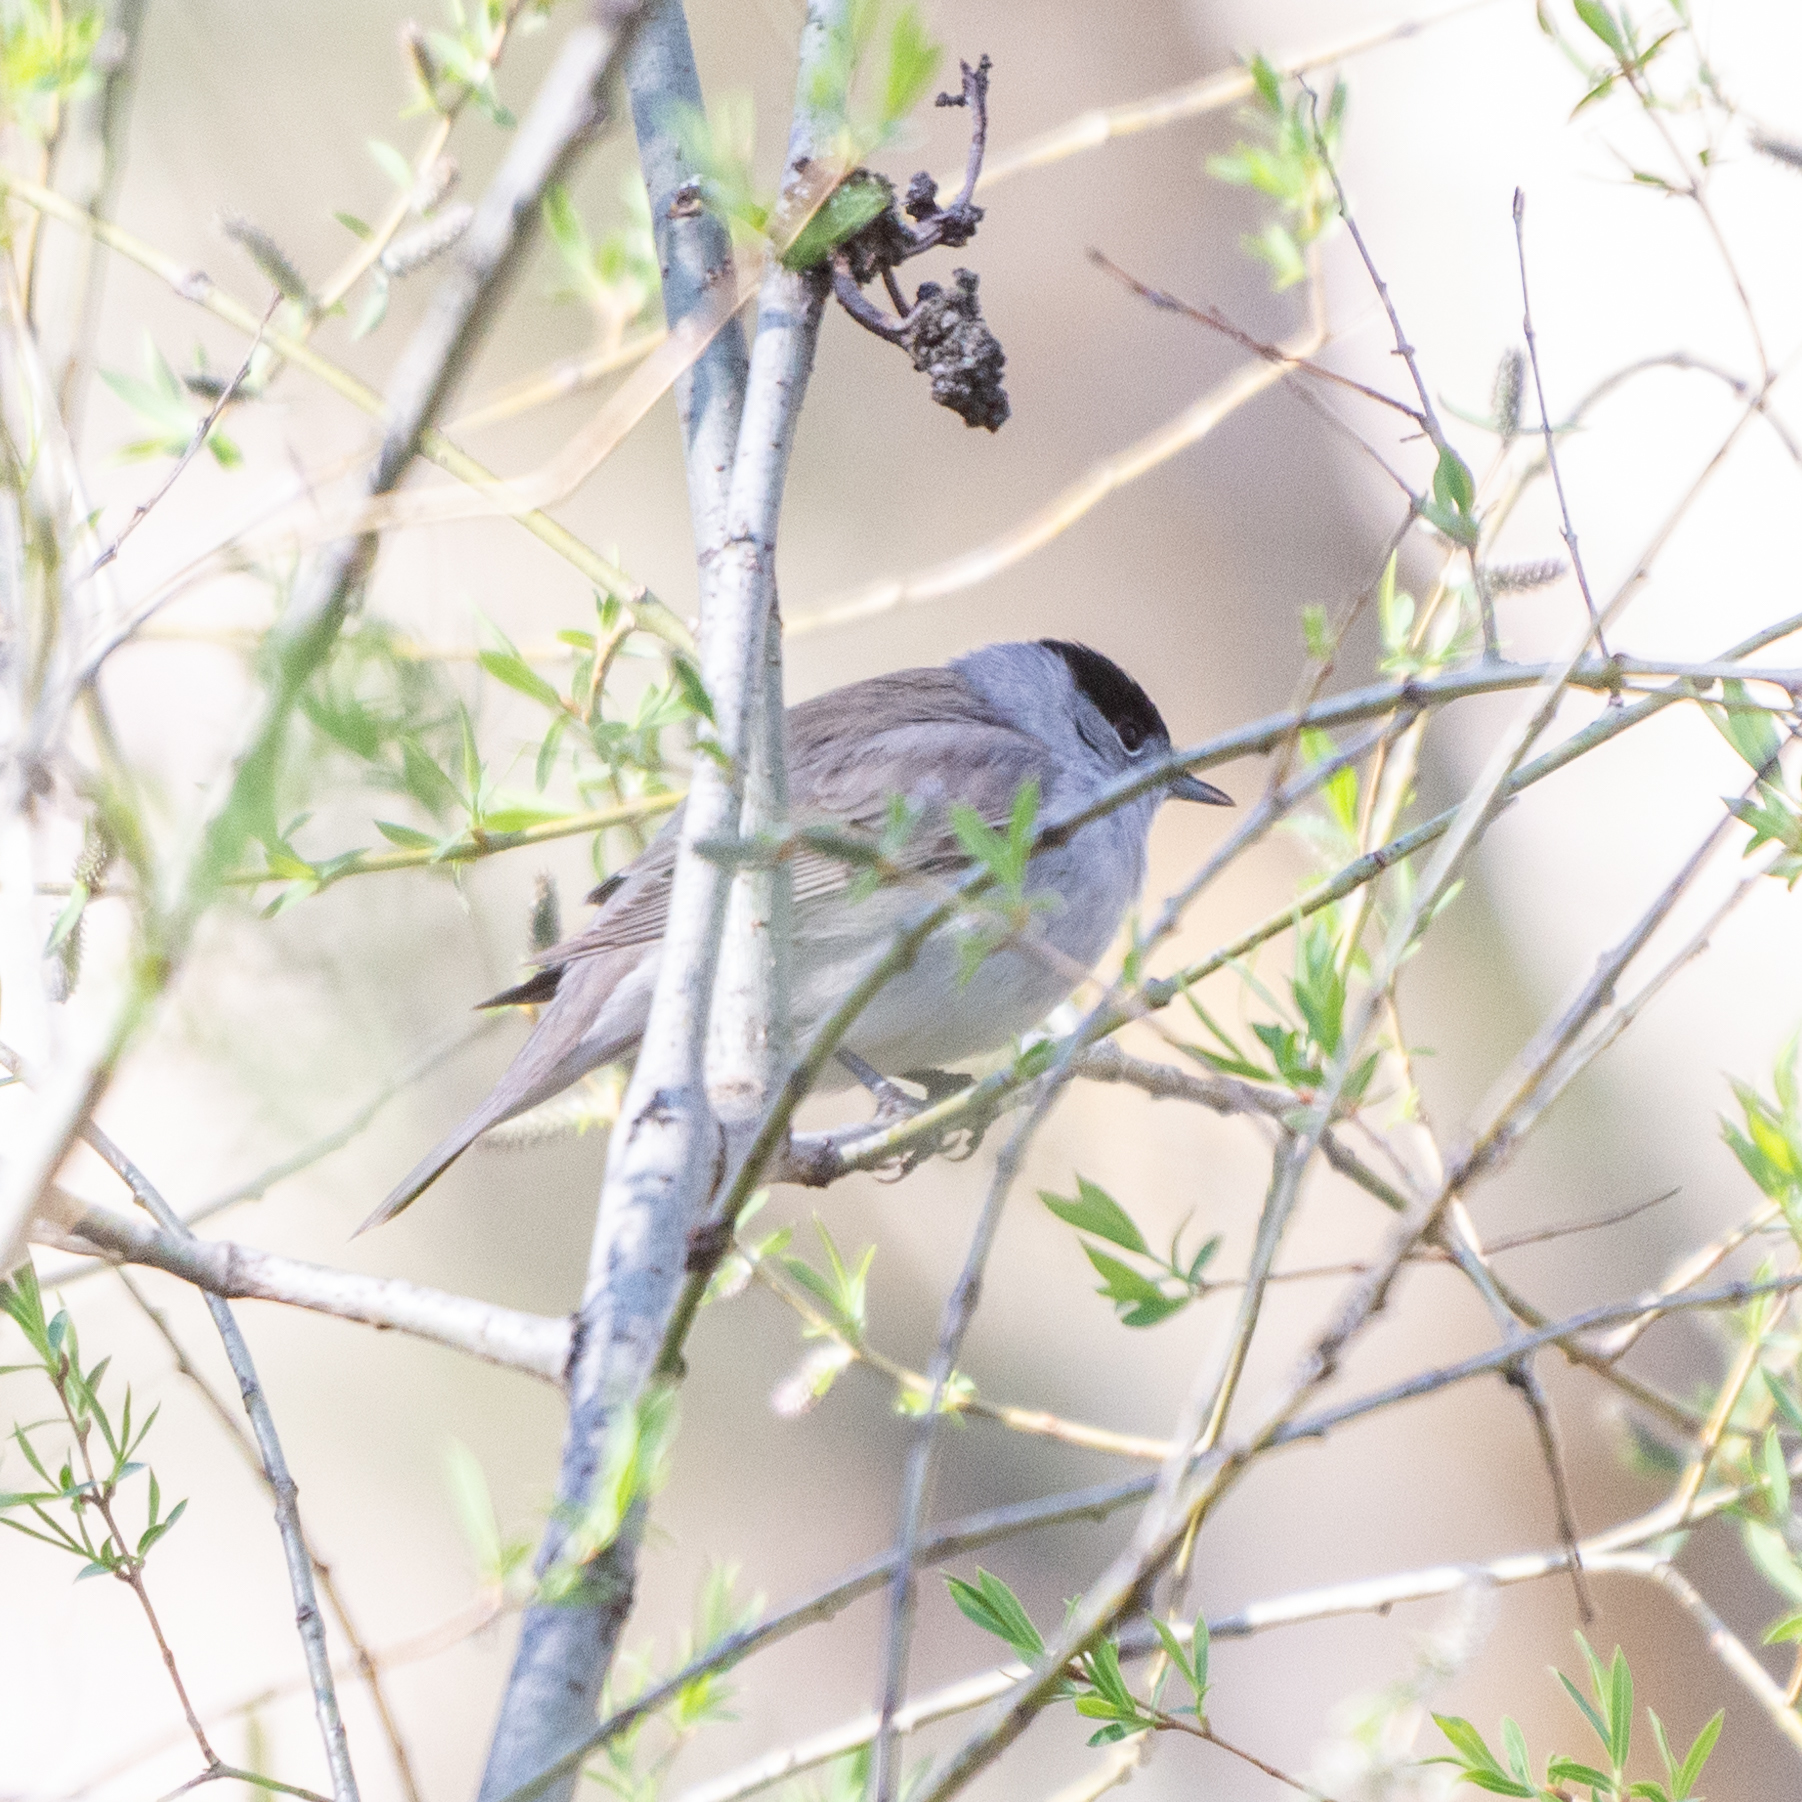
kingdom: Animalia
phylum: Chordata
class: Aves
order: Passeriformes
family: Sylviidae
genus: Sylvia
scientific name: Sylvia atricapilla
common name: Eurasian blackcap
